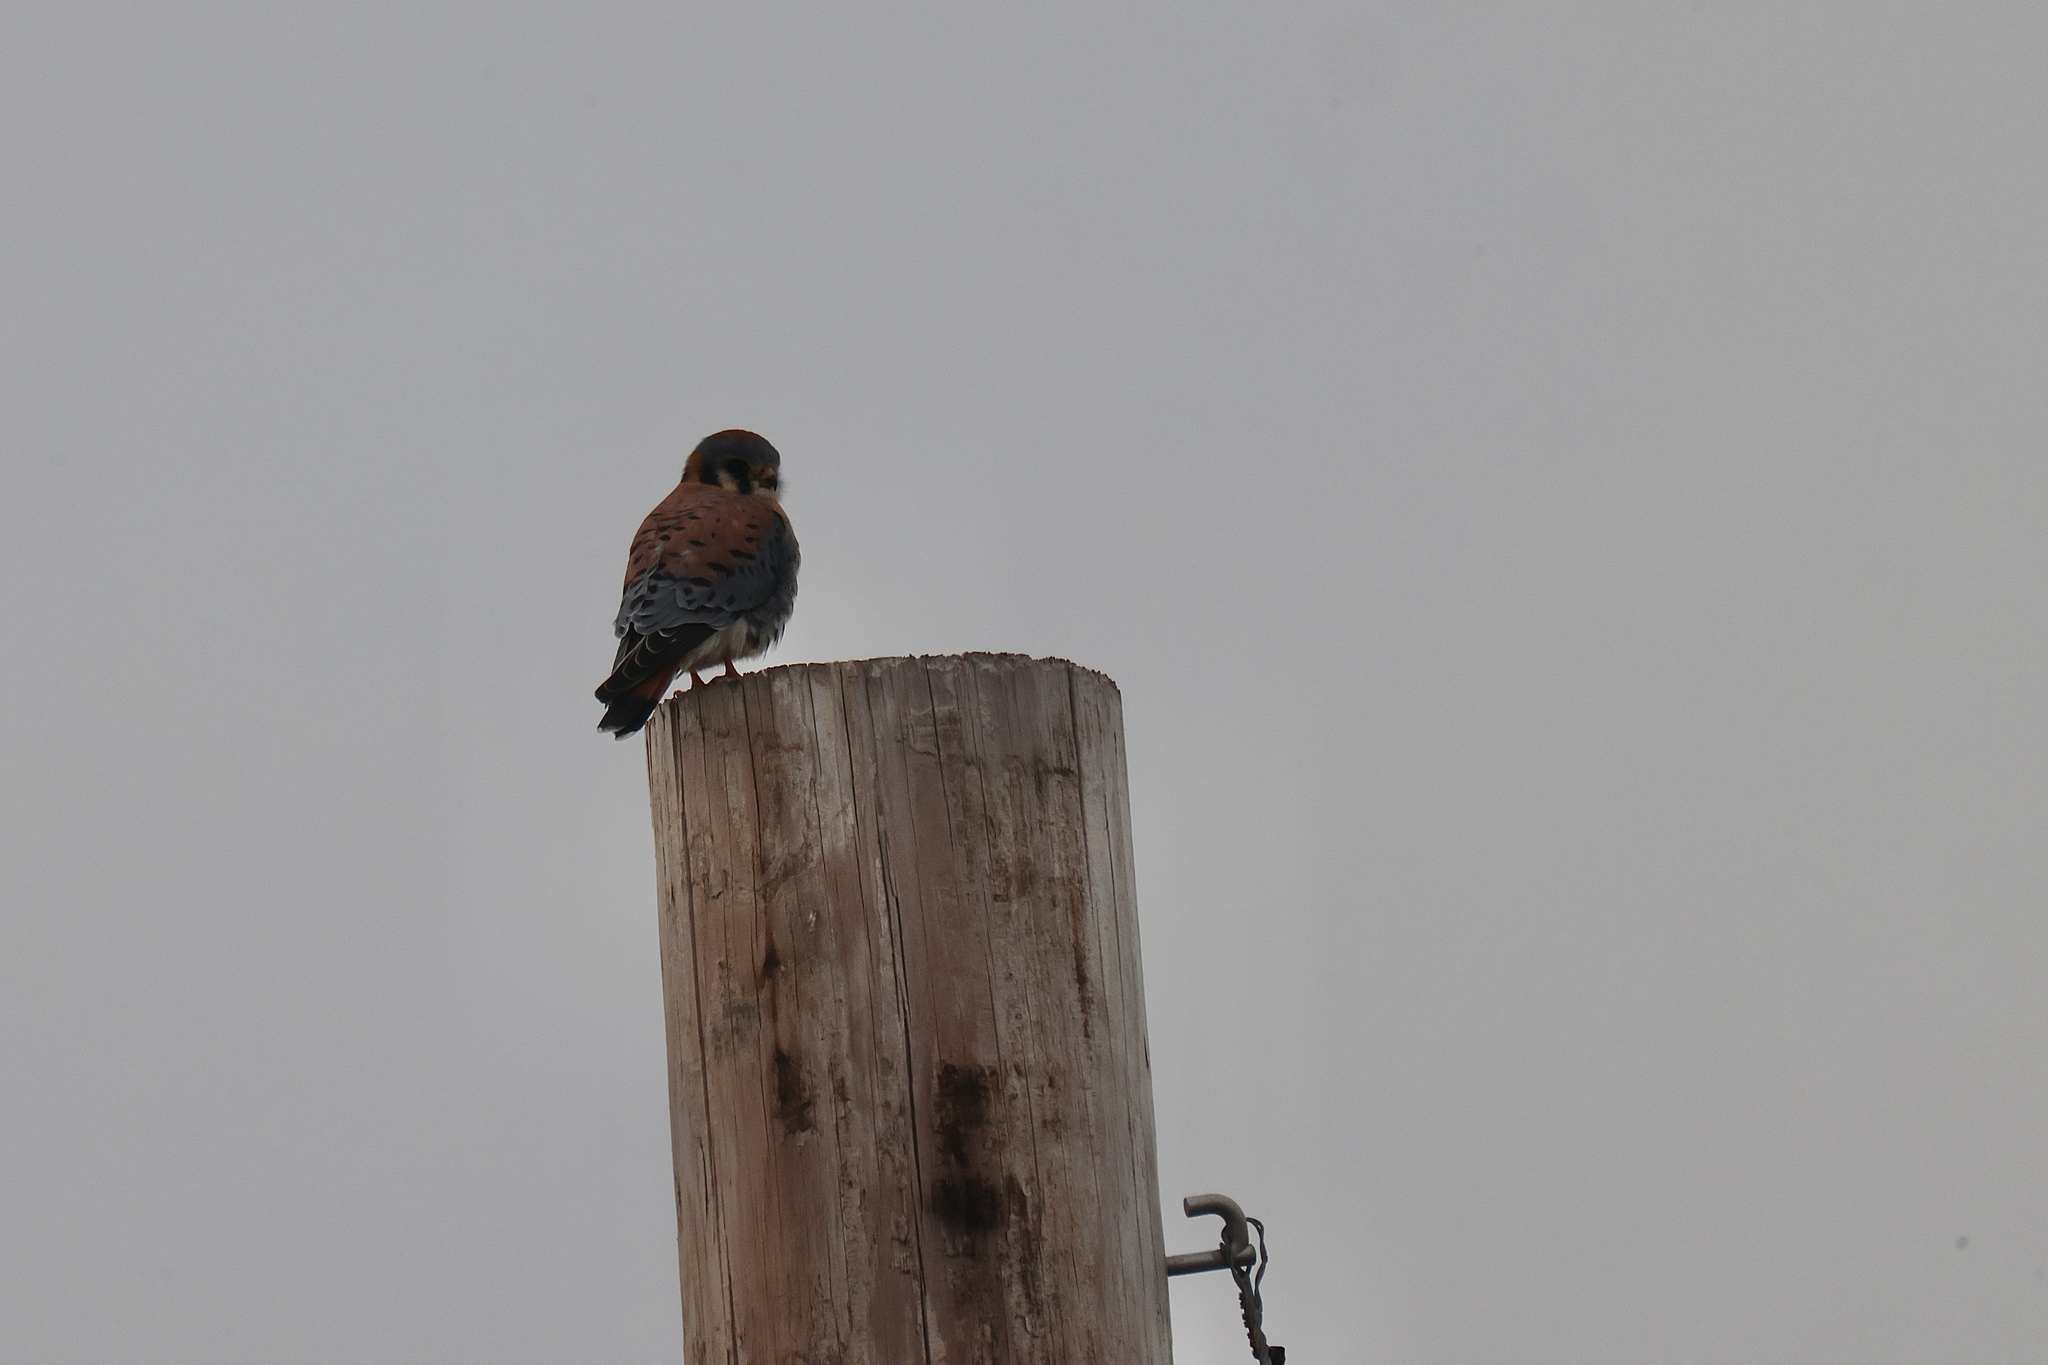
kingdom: Animalia
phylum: Chordata
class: Aves
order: Falconiformes
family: Falconidae
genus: Falco
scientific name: Falco sparverius
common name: American kestrel
